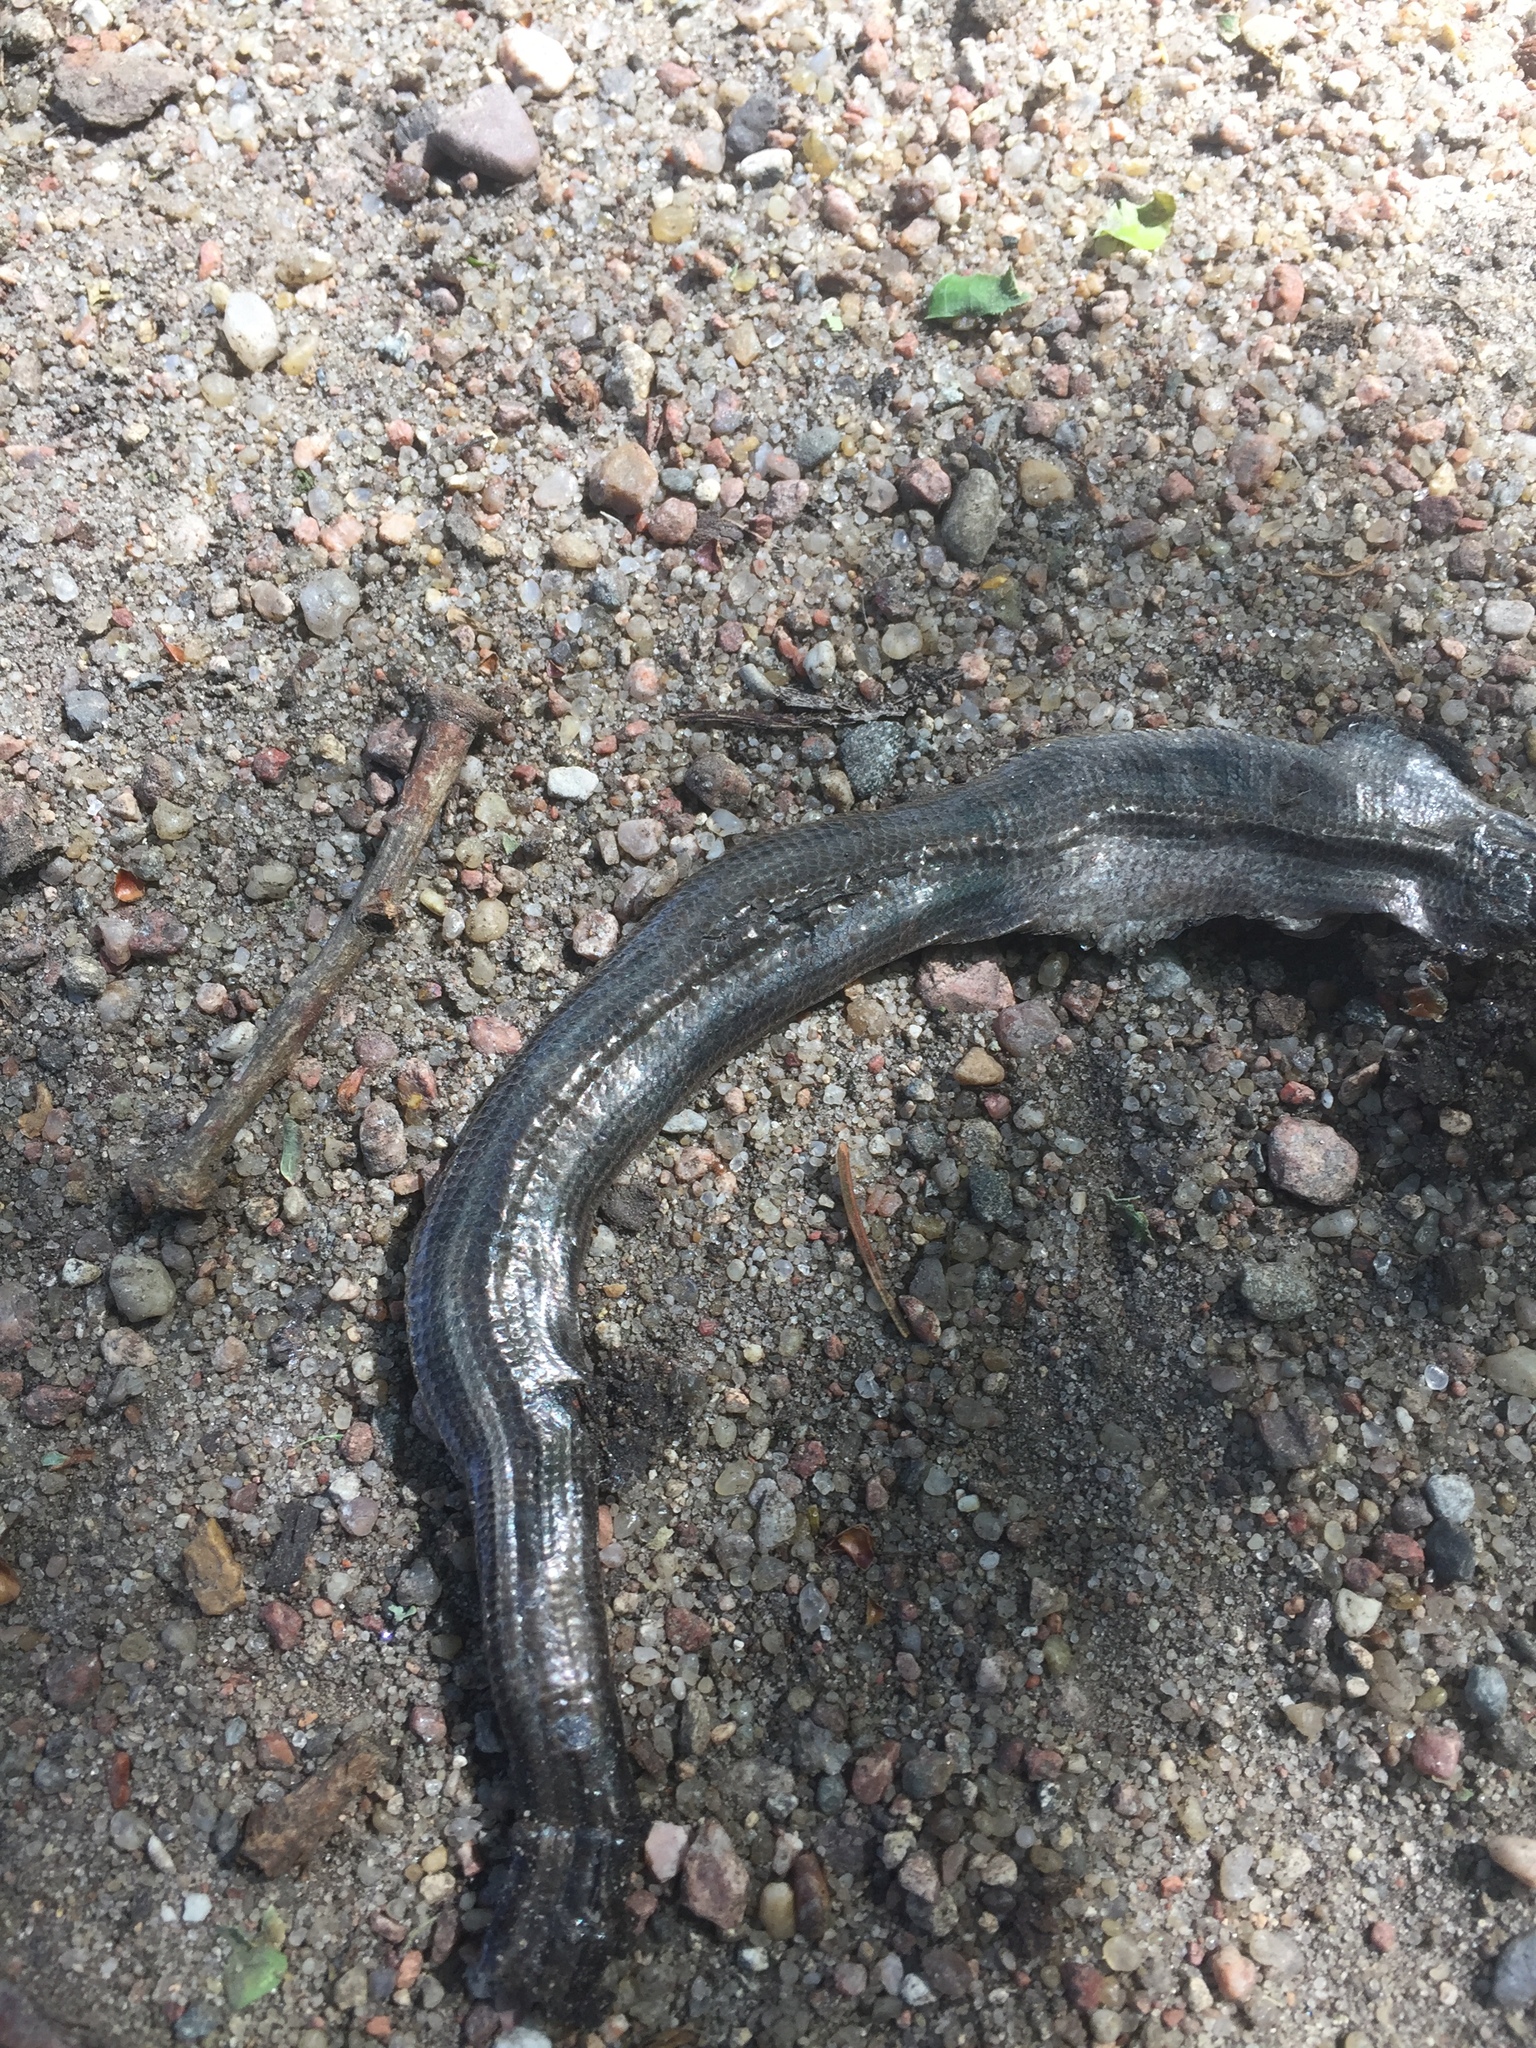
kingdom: Animalia
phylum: Chordata
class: Squamata
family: Anguidae
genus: Anguis
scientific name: Anguis colchica
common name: Slow worm
